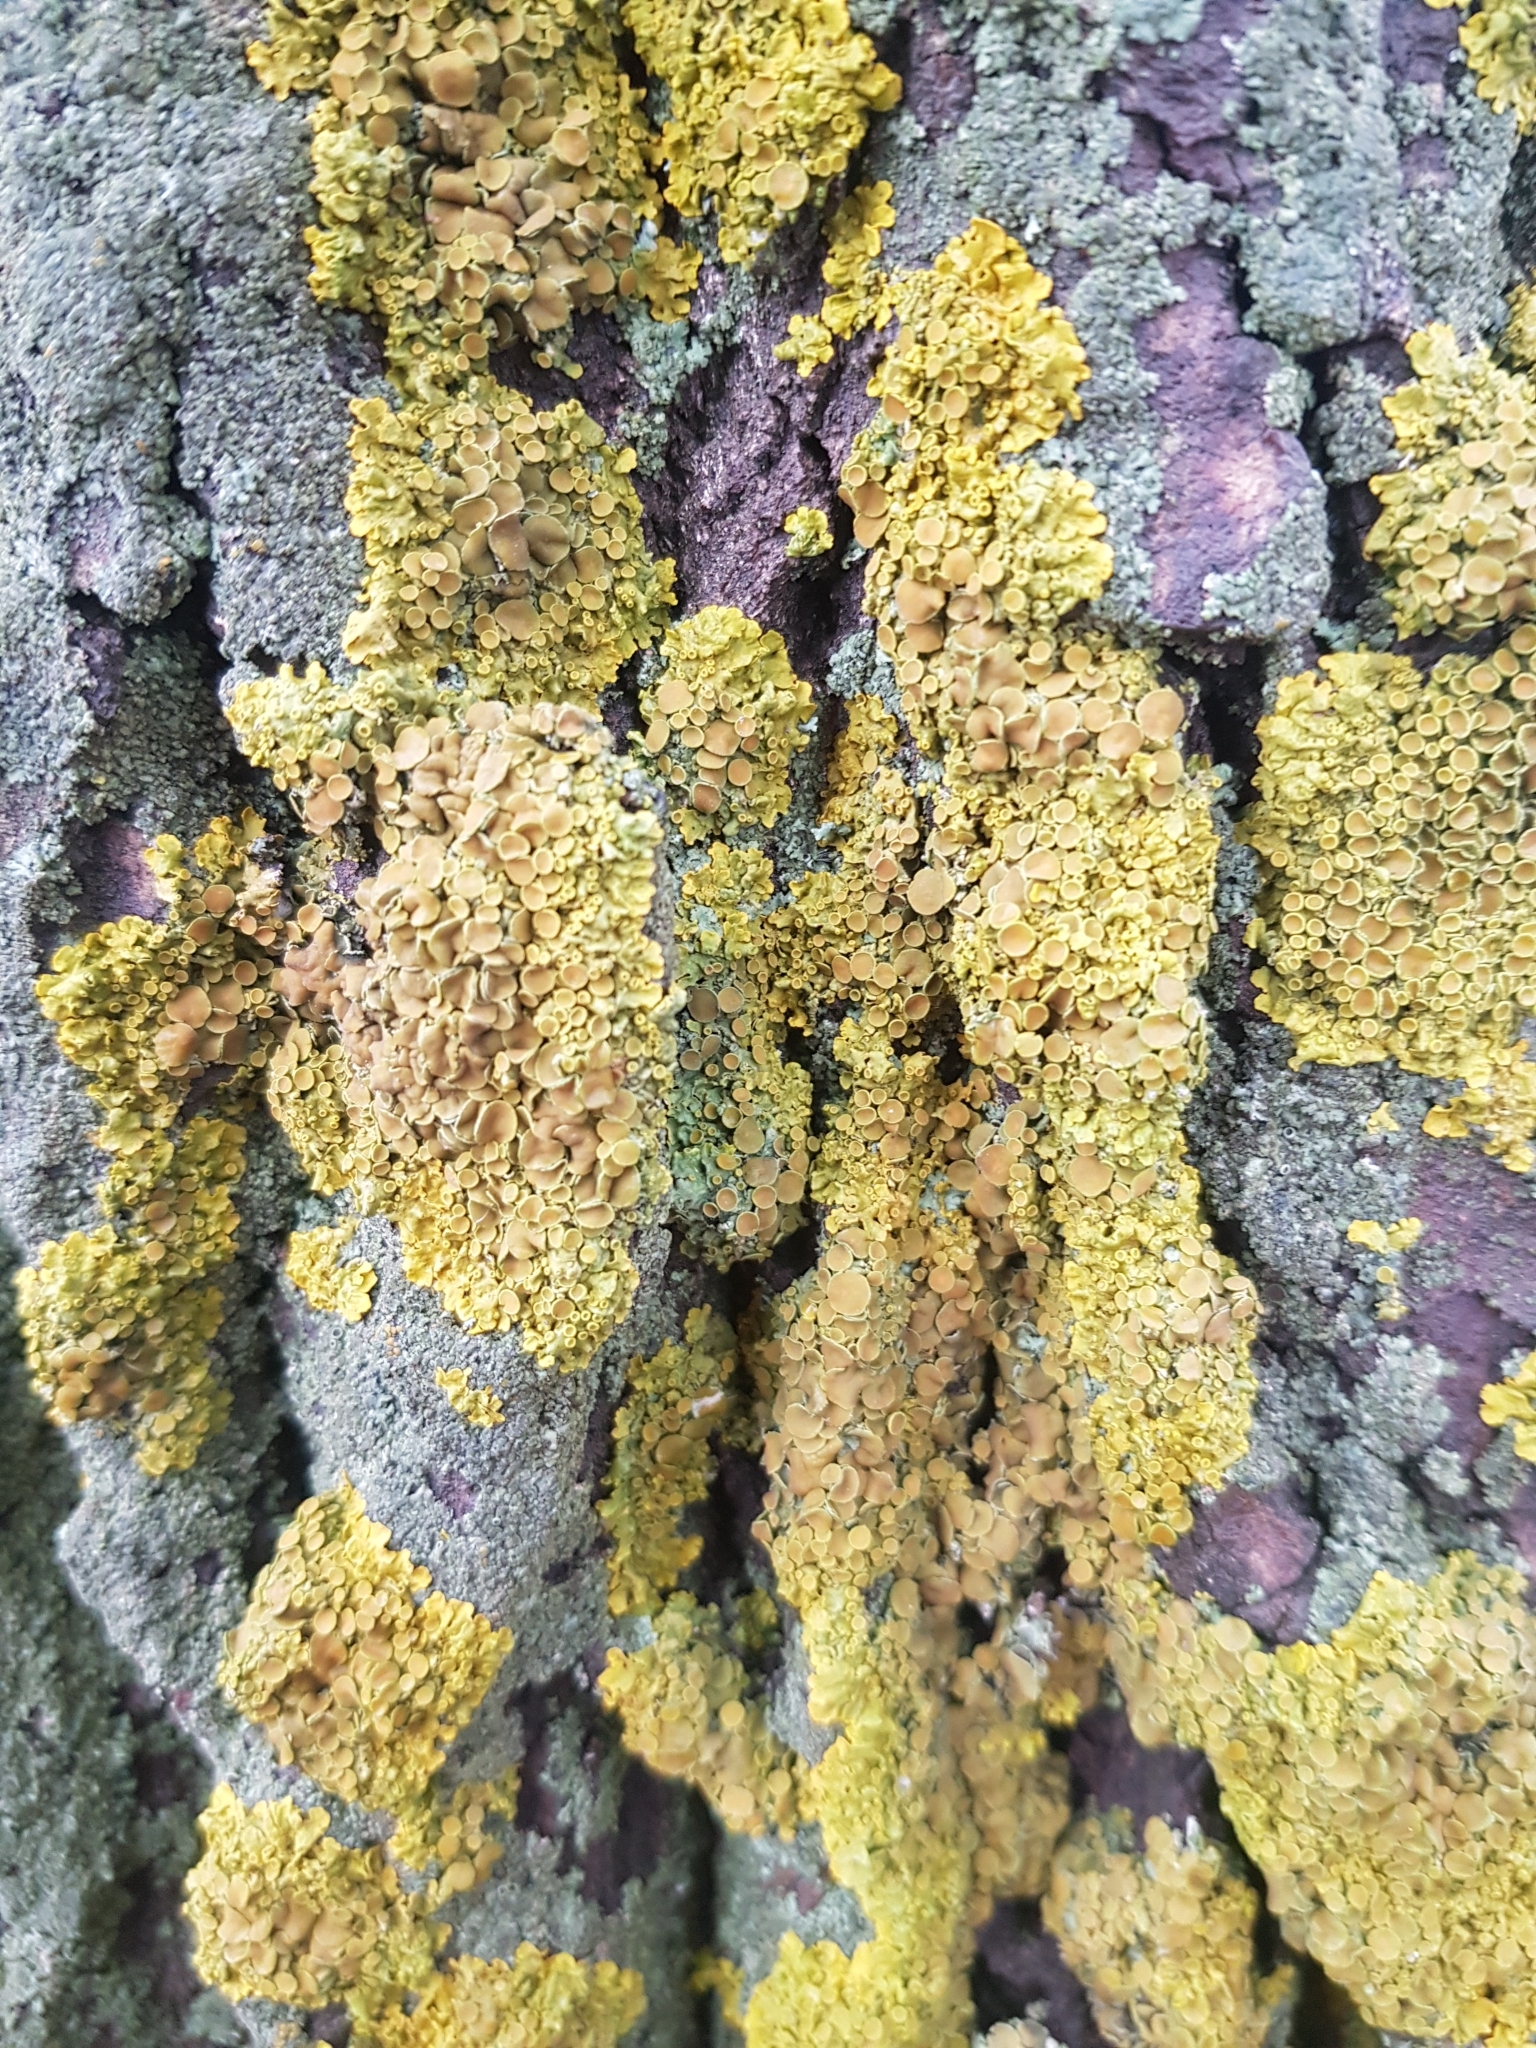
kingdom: Fungi
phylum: Ascomycota
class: Lecanoromycetes
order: Teloschistales
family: Teloschistaceae
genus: Xanthoria
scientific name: Xanthoria parietina
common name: Common orange lichen
